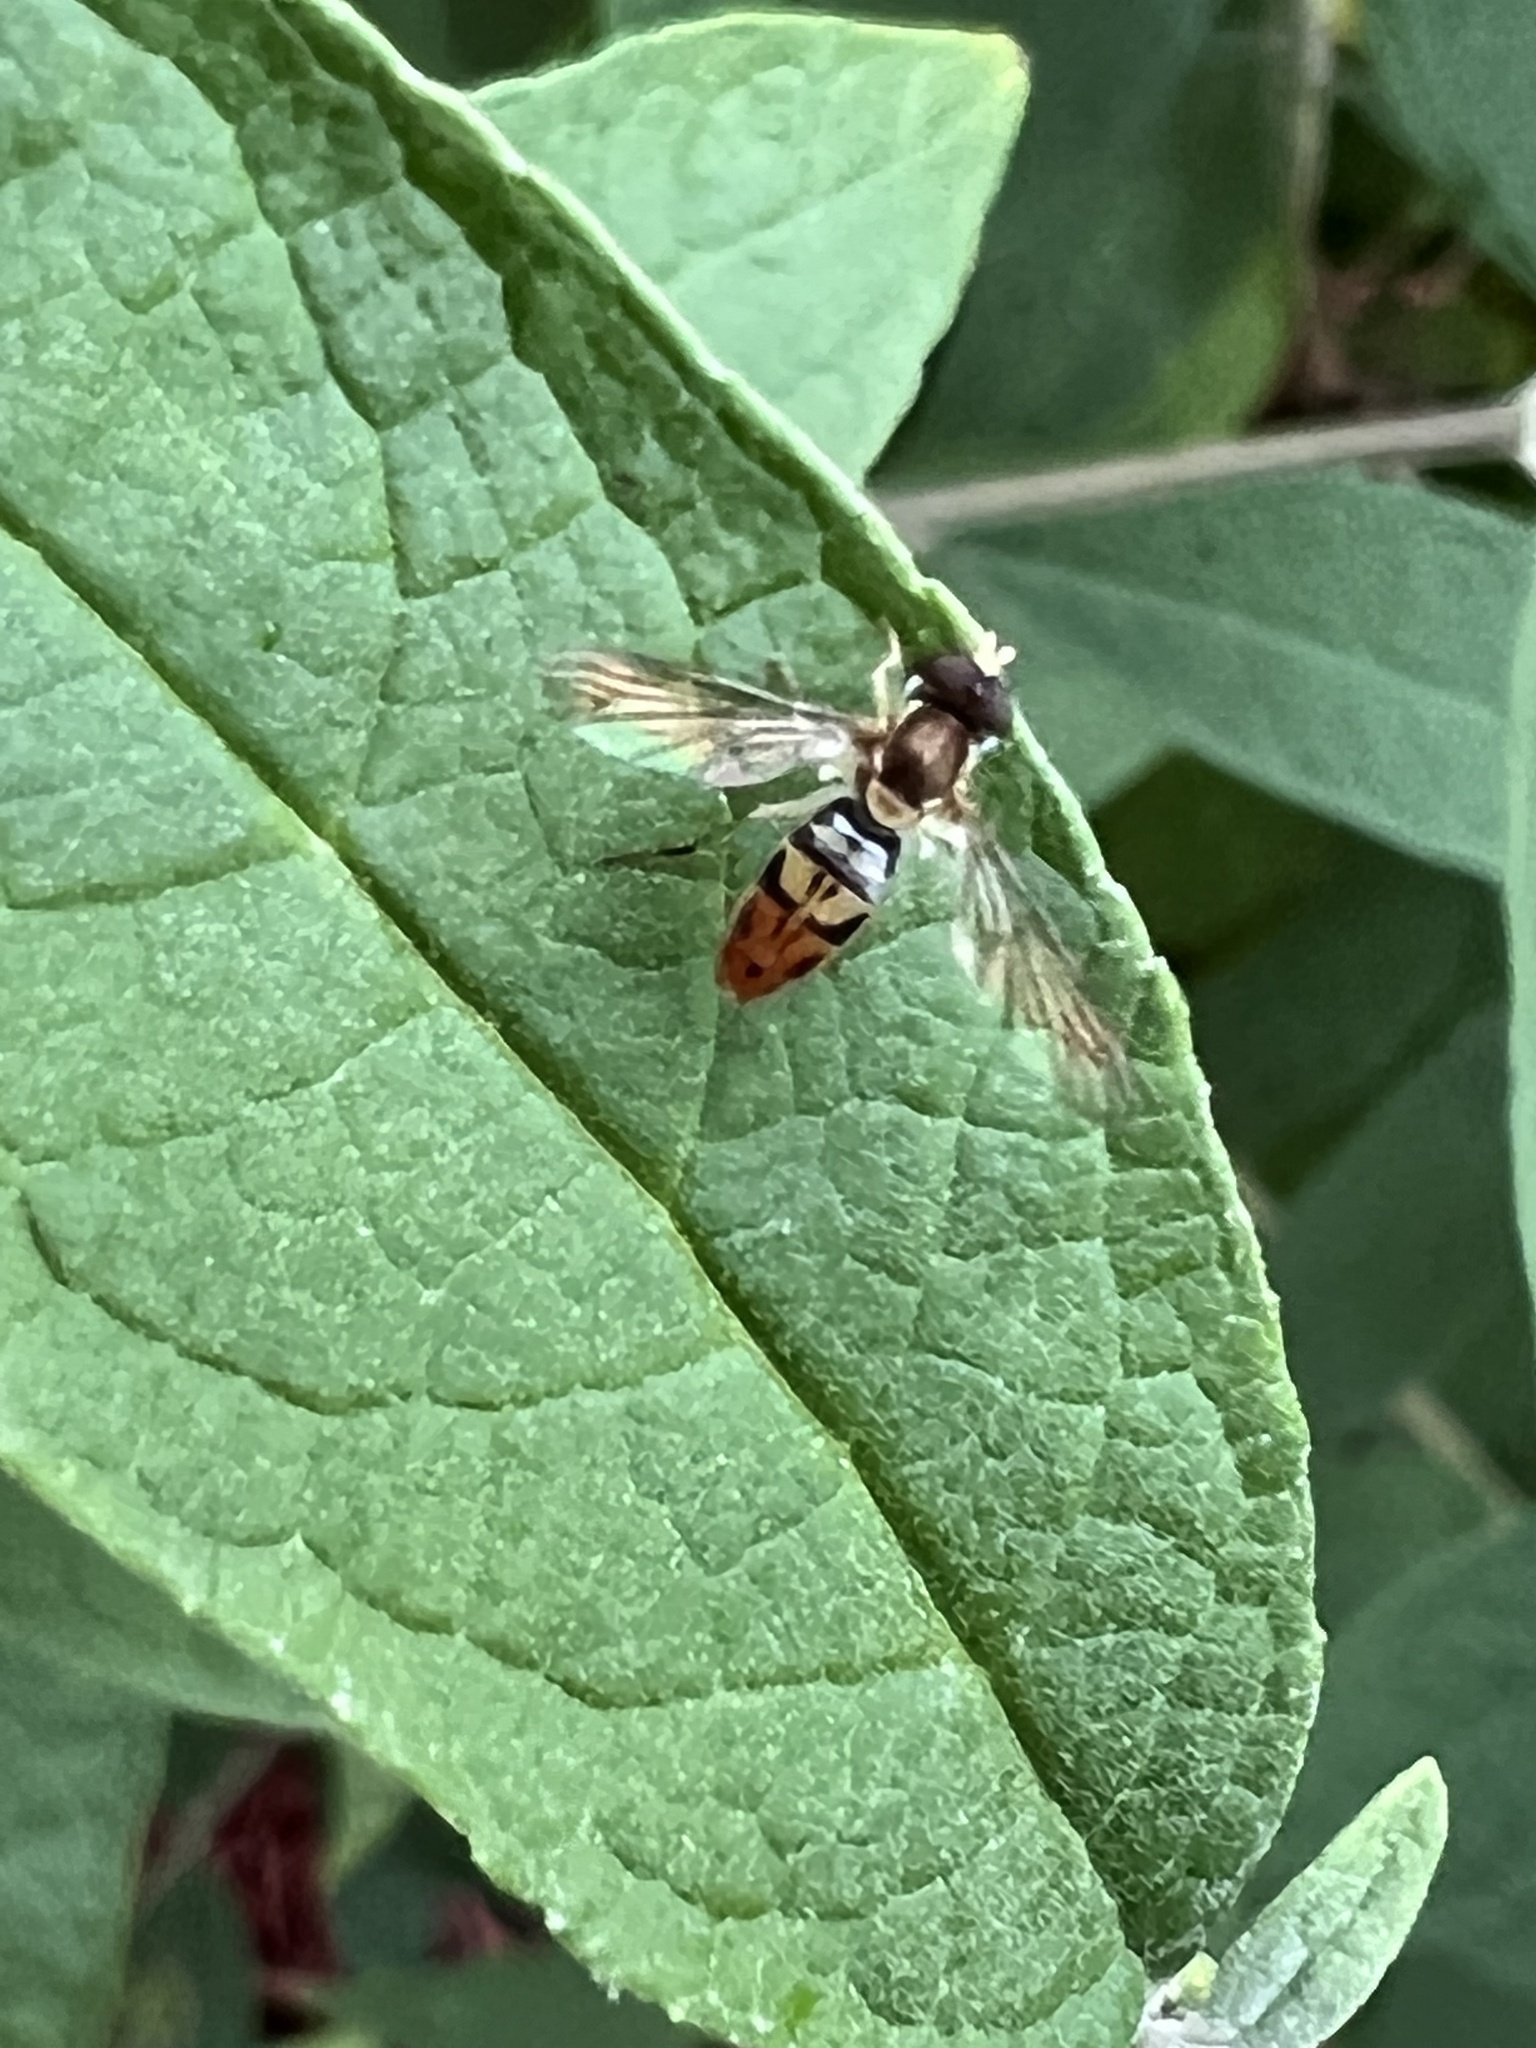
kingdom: Animalia
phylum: Arthropoda
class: Insecta
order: Diptera
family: Syrphidae
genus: Toxomerus
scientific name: Toxomerus marginatus
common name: Syrphid fly
